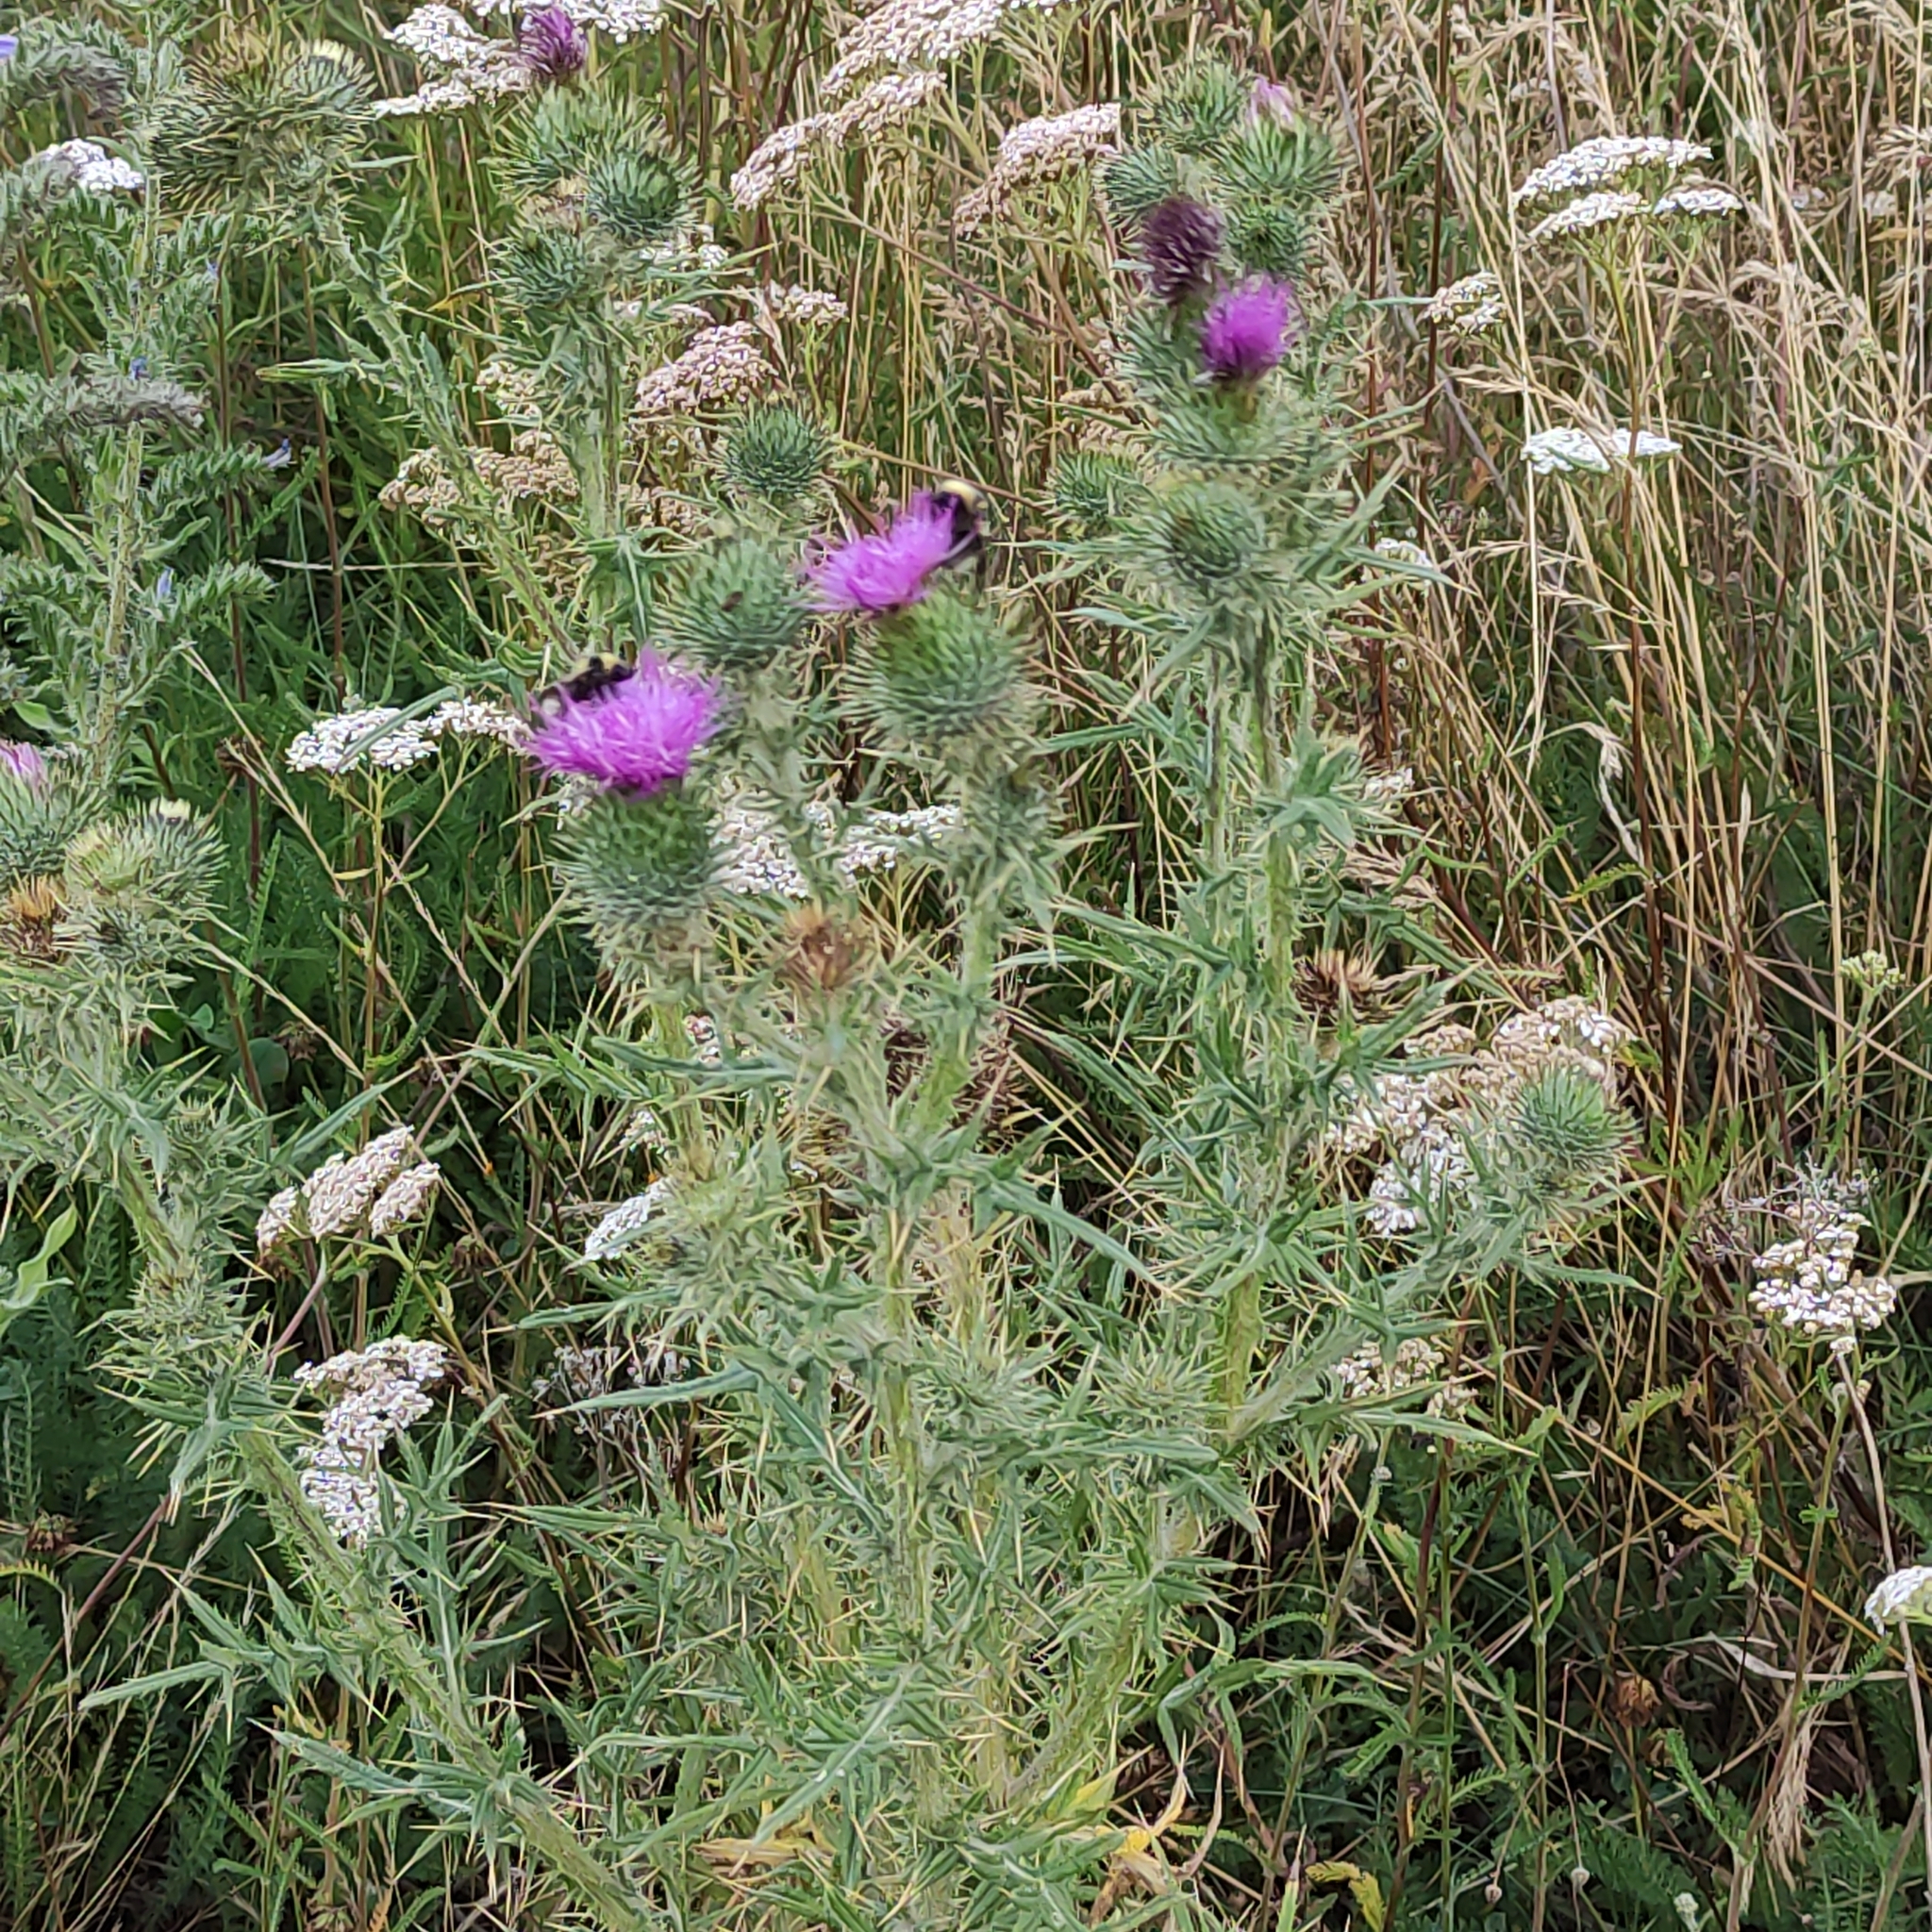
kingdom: Plantae
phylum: Tracheophyta
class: Magnoliopsida
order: Asterales
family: Asteraceae
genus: Cirsium
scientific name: Cirsium vulgare
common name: Bull thistle
